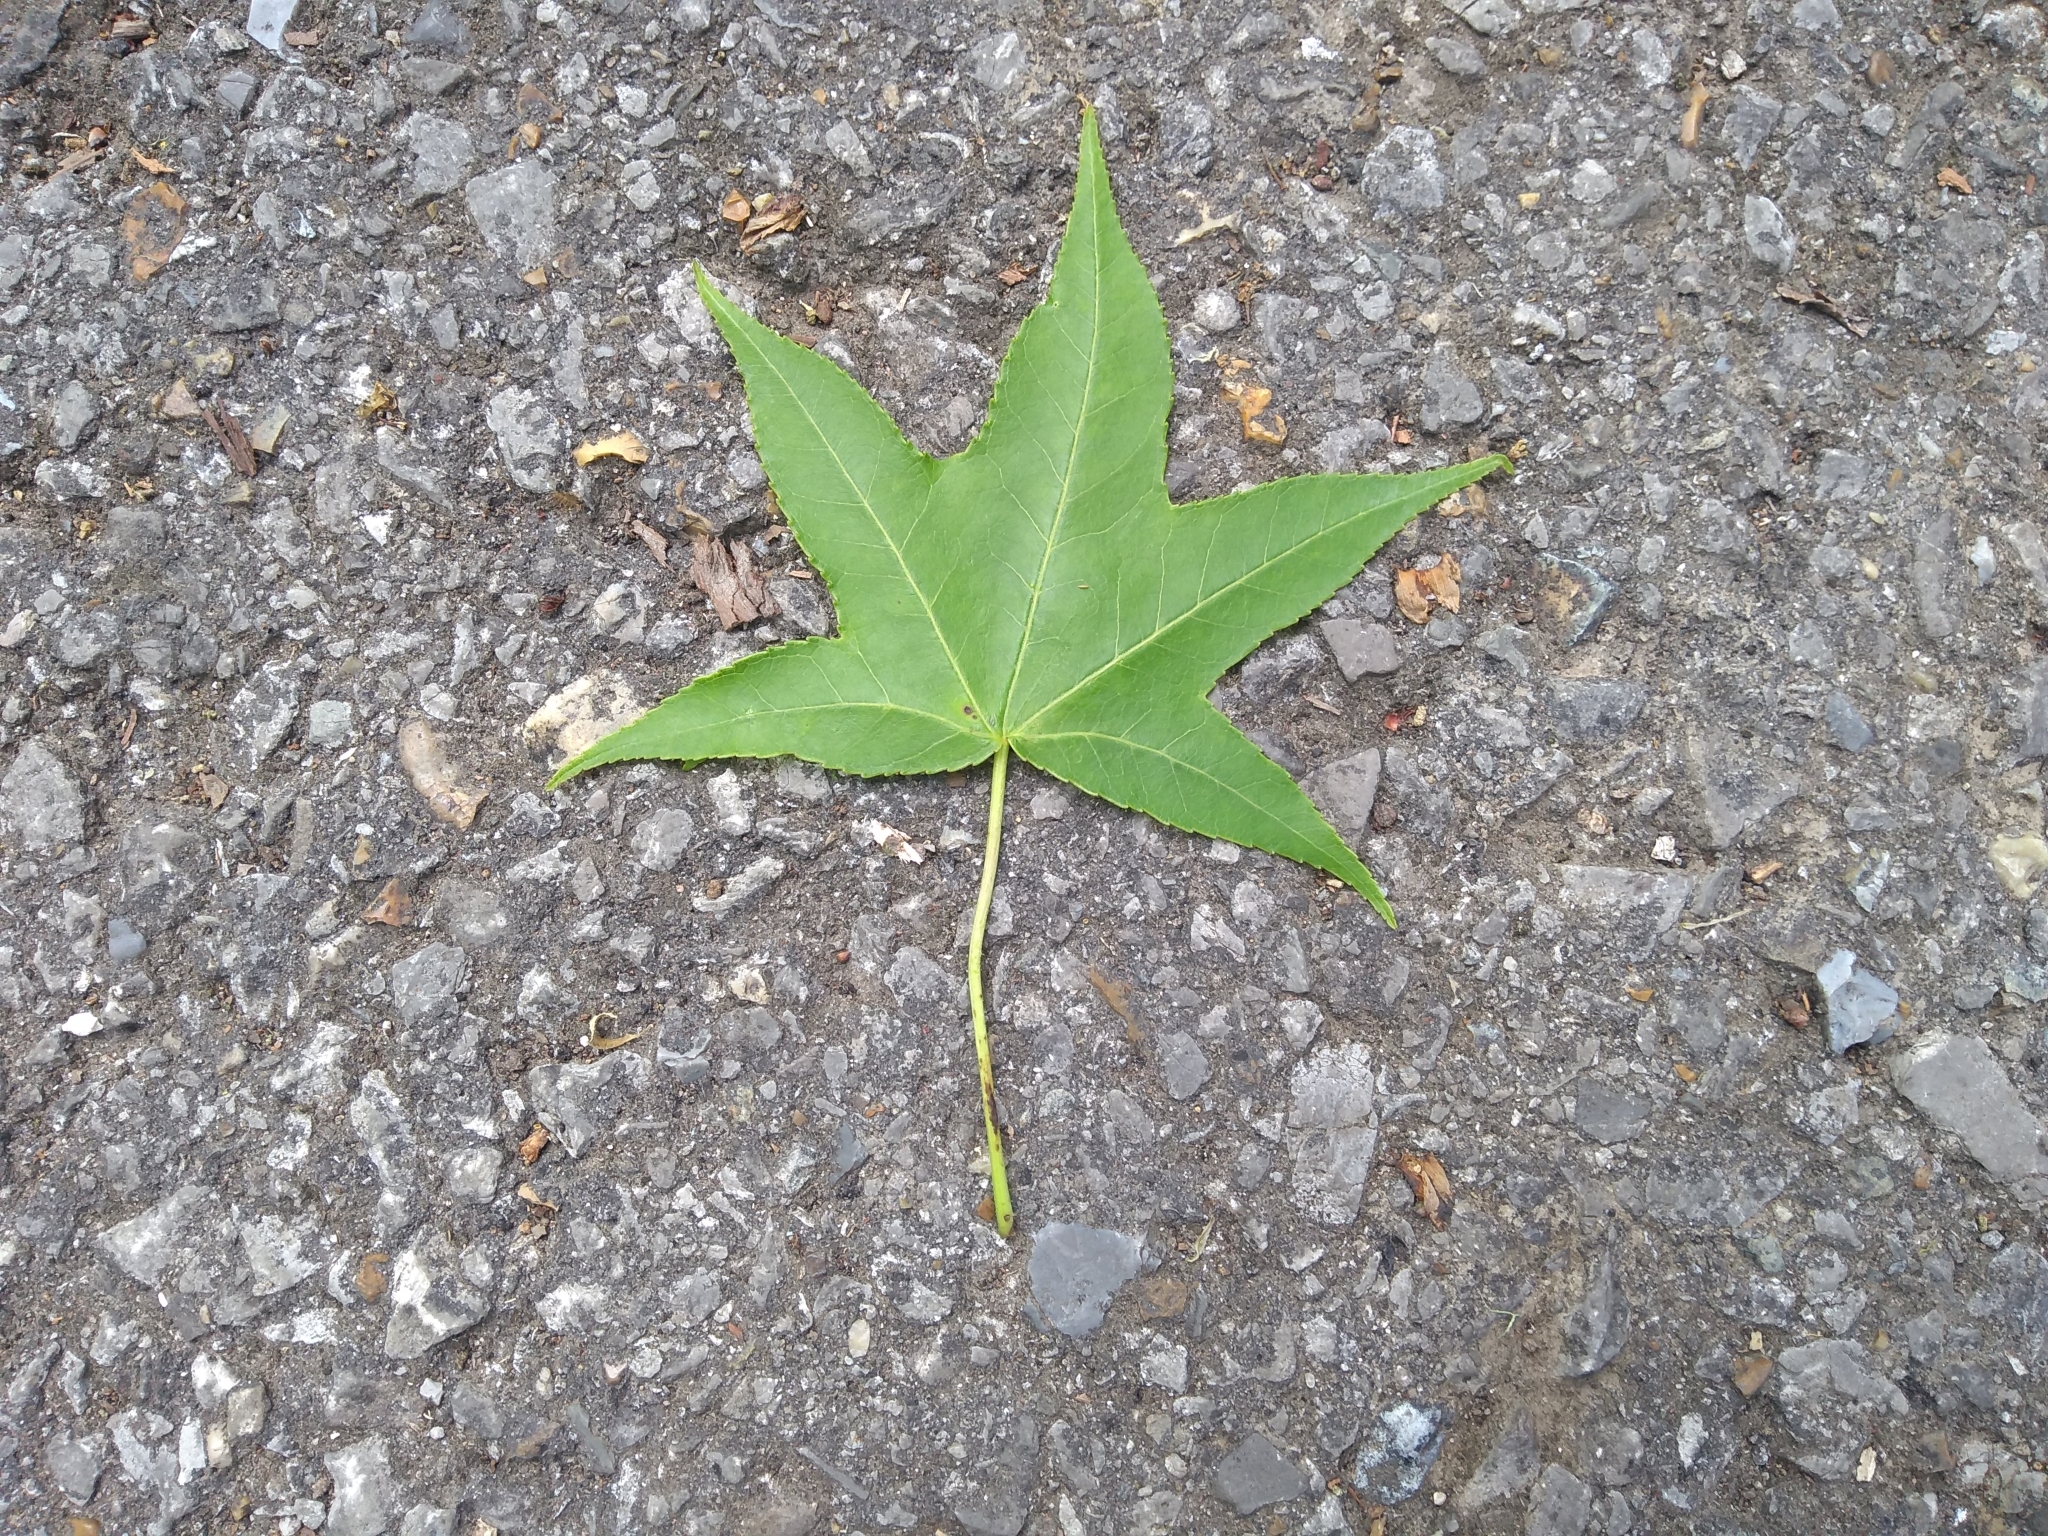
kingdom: Plantae
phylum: Tracheophyta
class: Magnoliopsida
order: Saxifragales
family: Altingiaceae
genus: Liquidambar
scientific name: Liquidambar styraciflua
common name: Sweet gum
